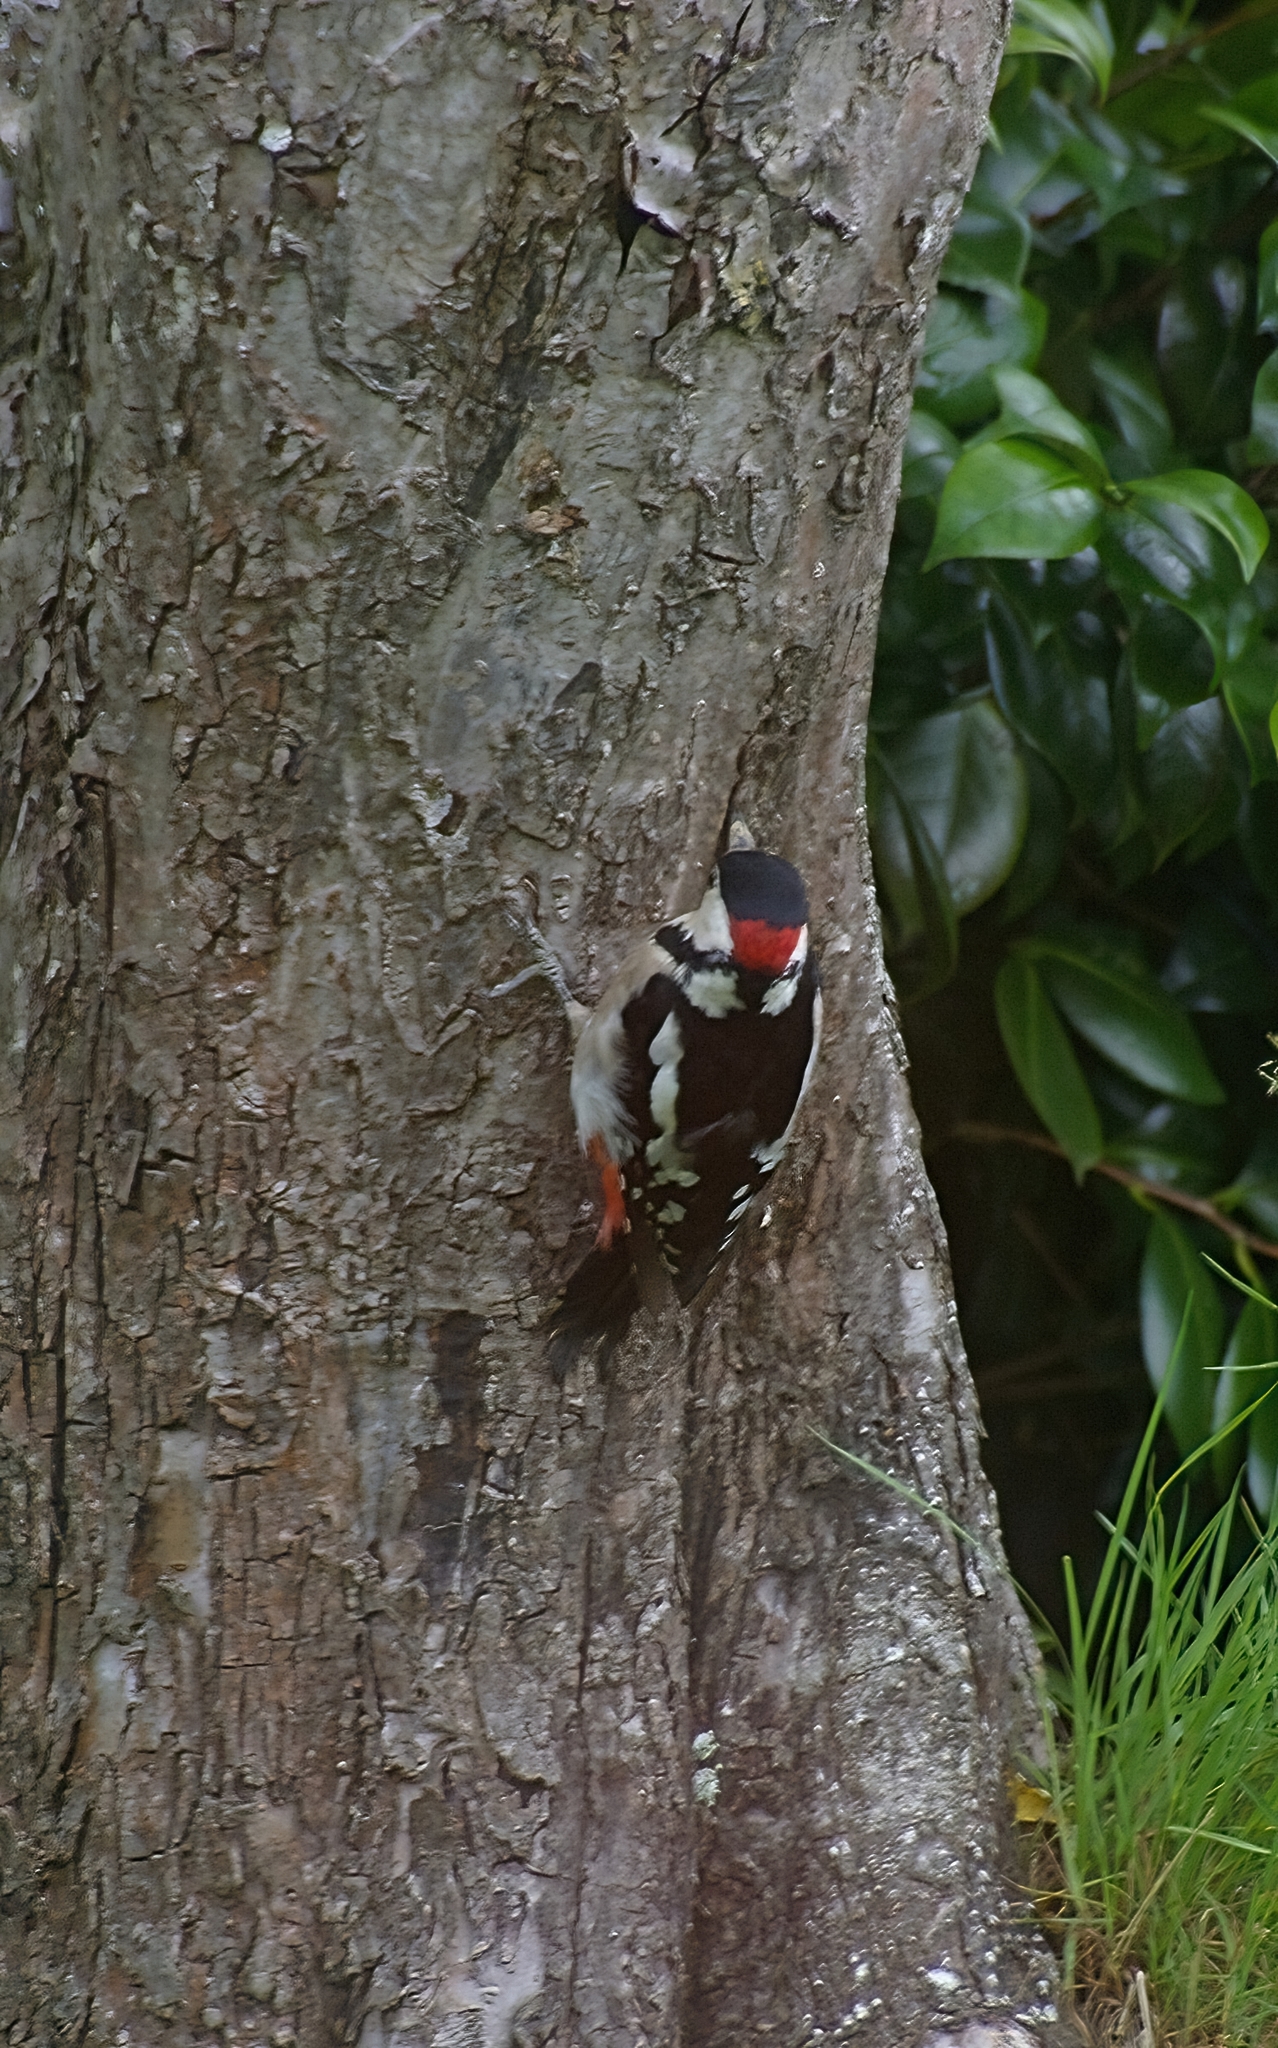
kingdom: Animalia
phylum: Chordata
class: Aves
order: Piciformes
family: Picidae
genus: Dendrocopos
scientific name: Dendrocopos major
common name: Great spotted woodpecker
